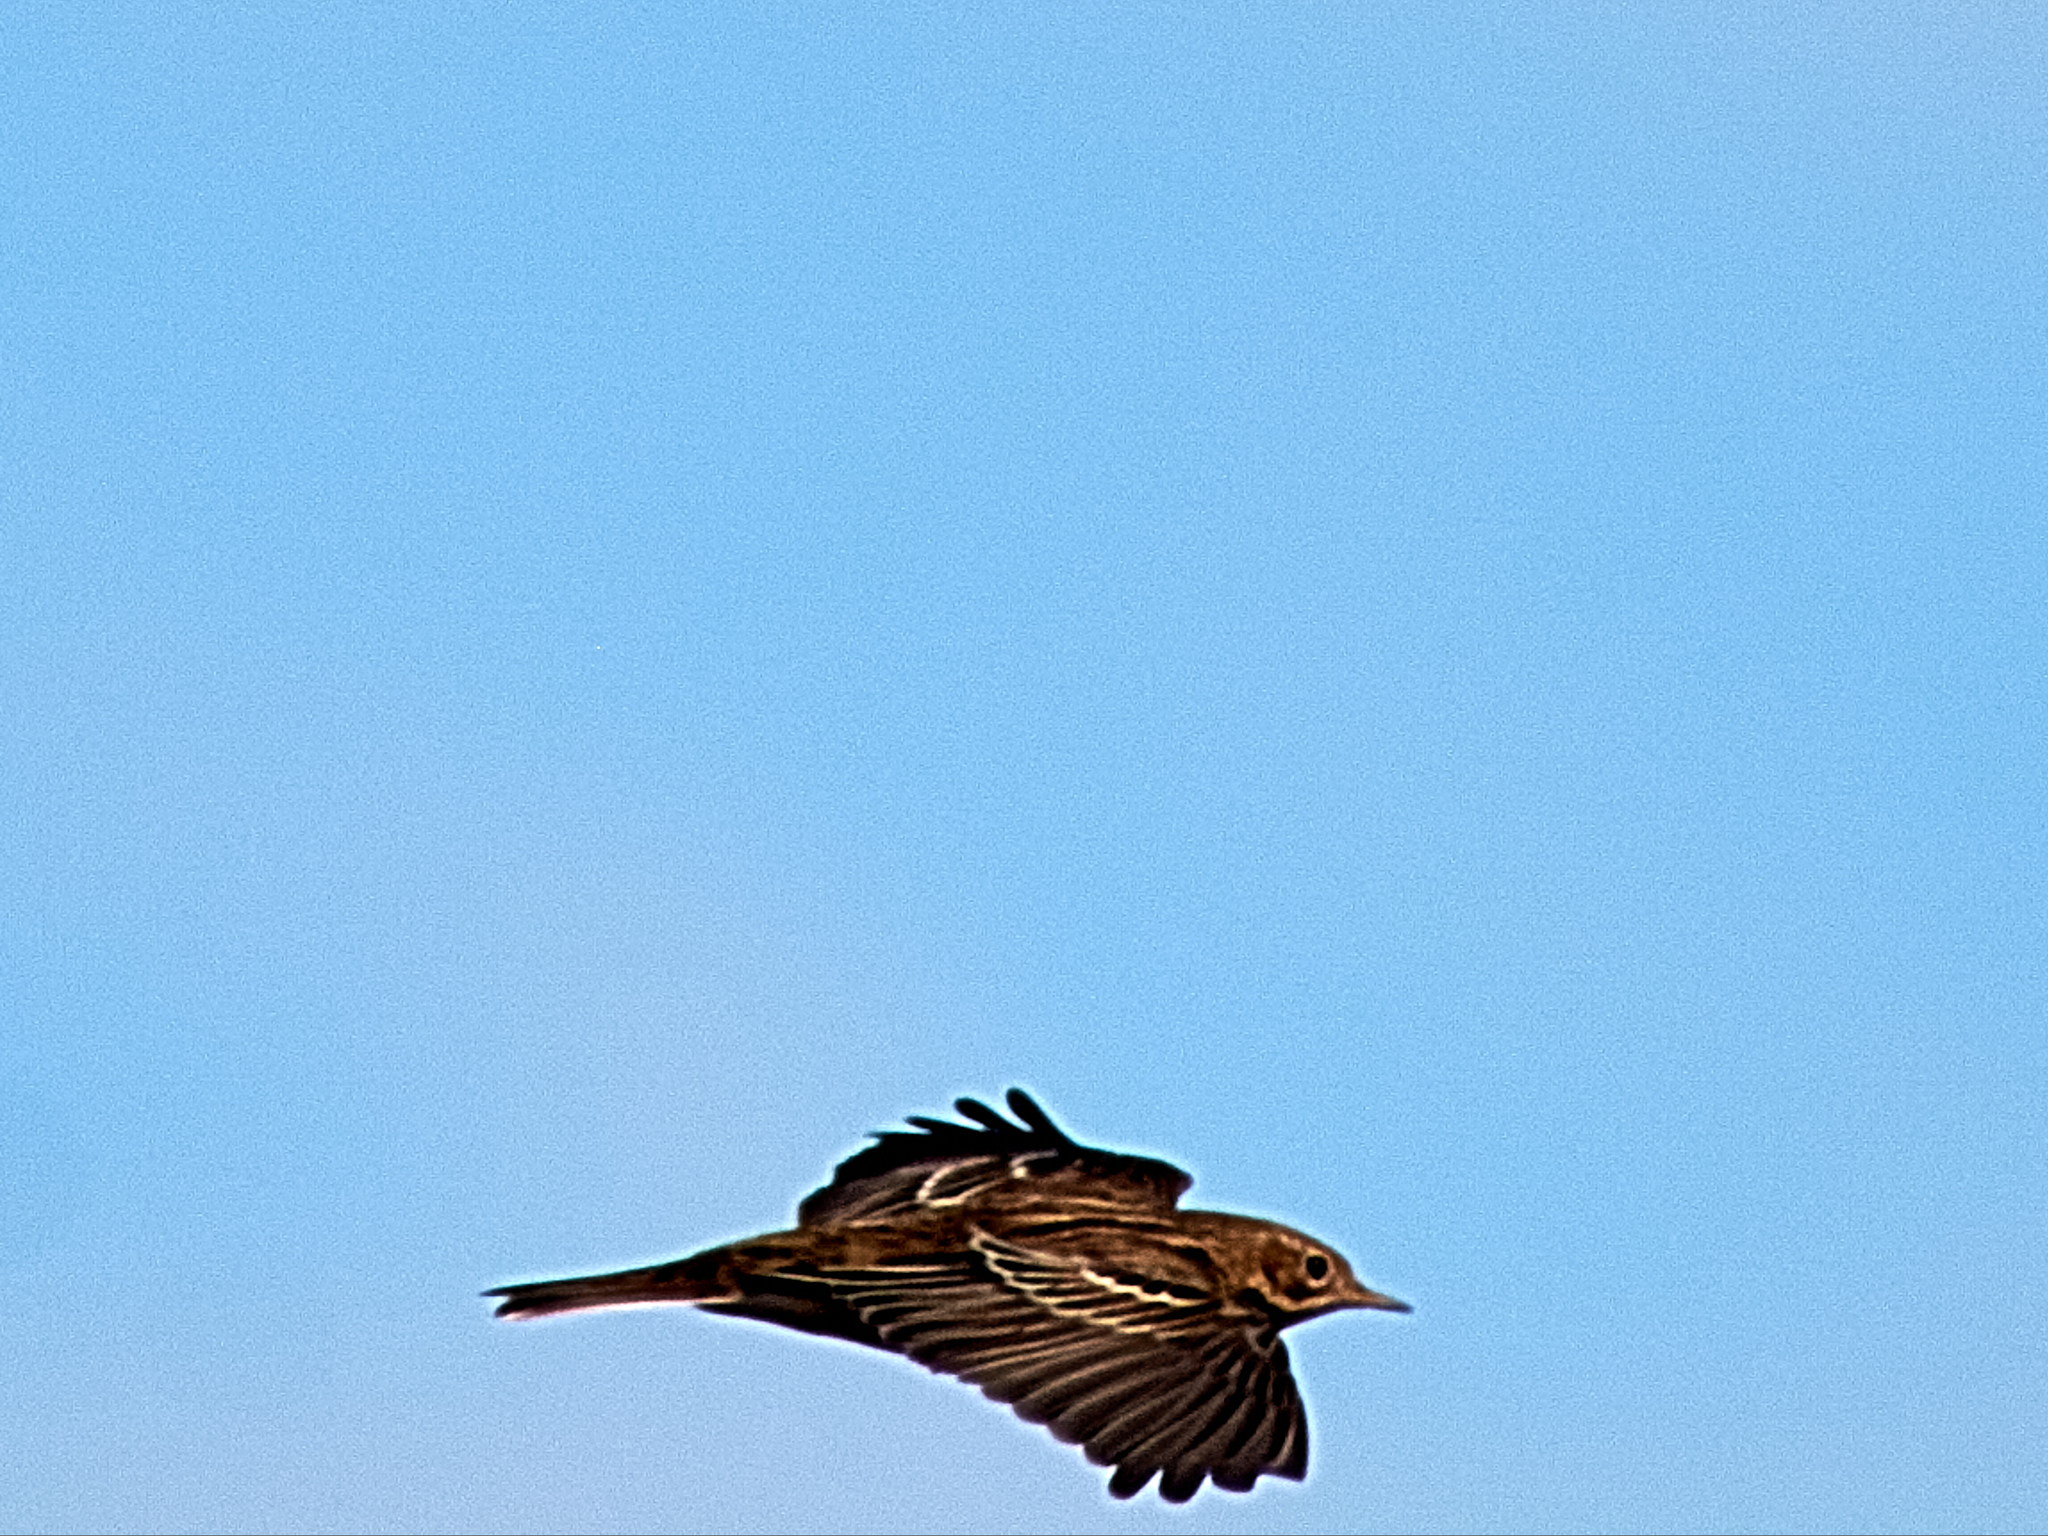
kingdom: Animalia
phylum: Chordata
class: Aves
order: Passeriformes
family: Motacillidae
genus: Anthus
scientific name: Anthus pratensis
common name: Meadow pipit
